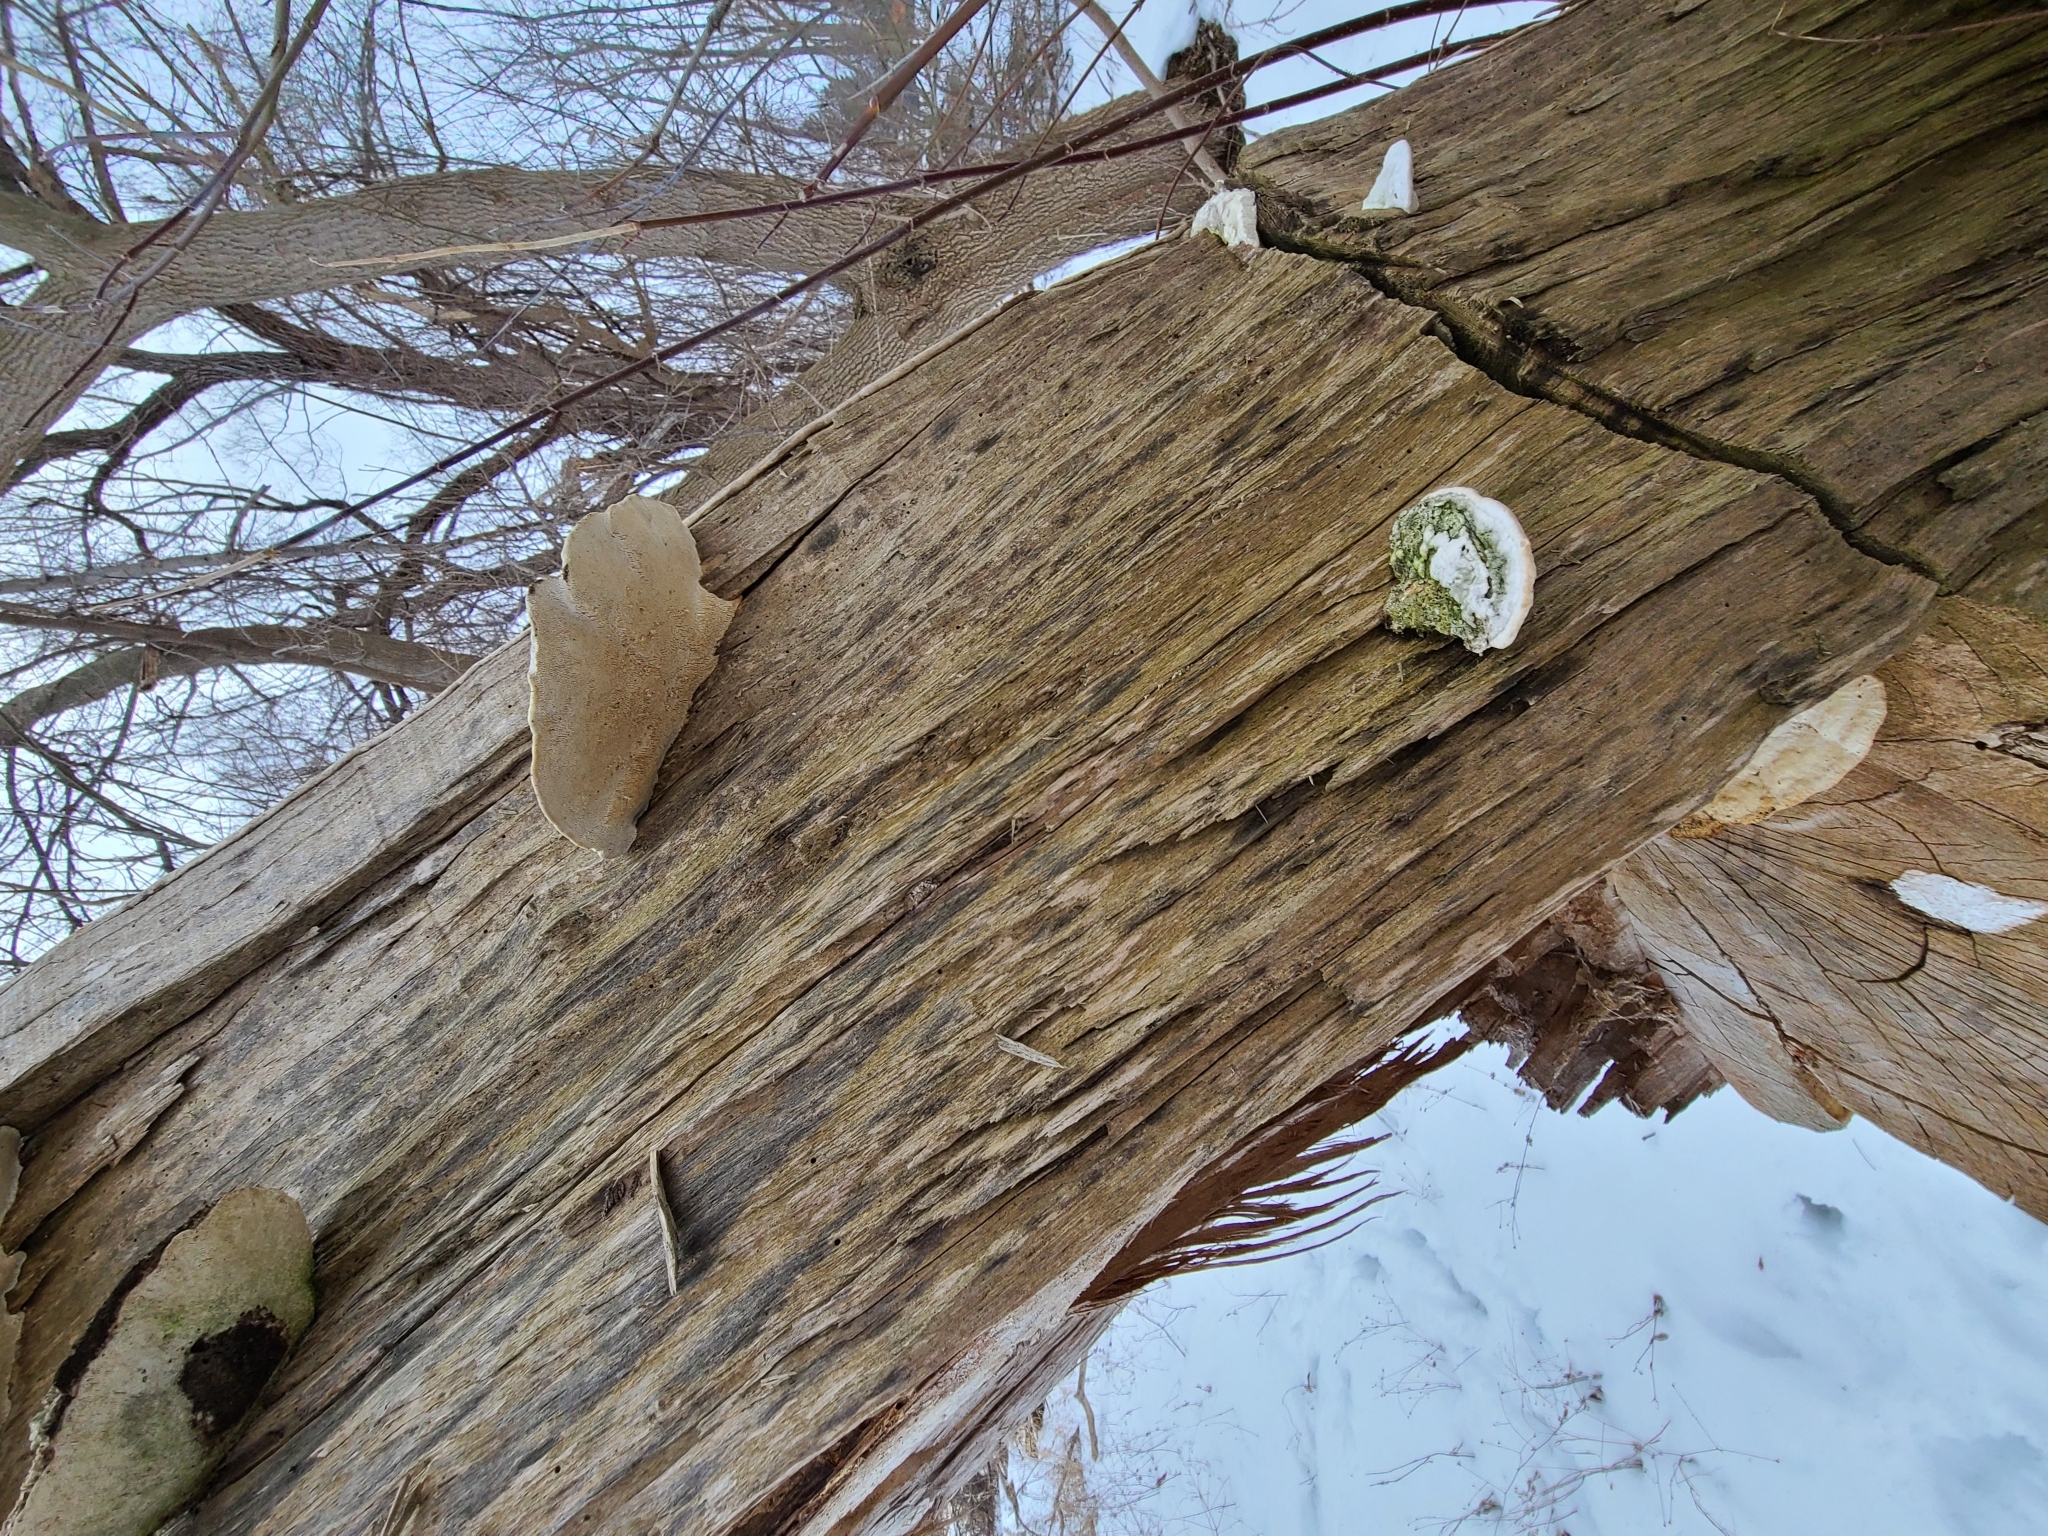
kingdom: Fungi
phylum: Basidiomycota
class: Agaricomycetes
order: Polyporales
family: Polyporaceae
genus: Trametes
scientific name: Trametes gibbosa
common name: Lumpy bracket
